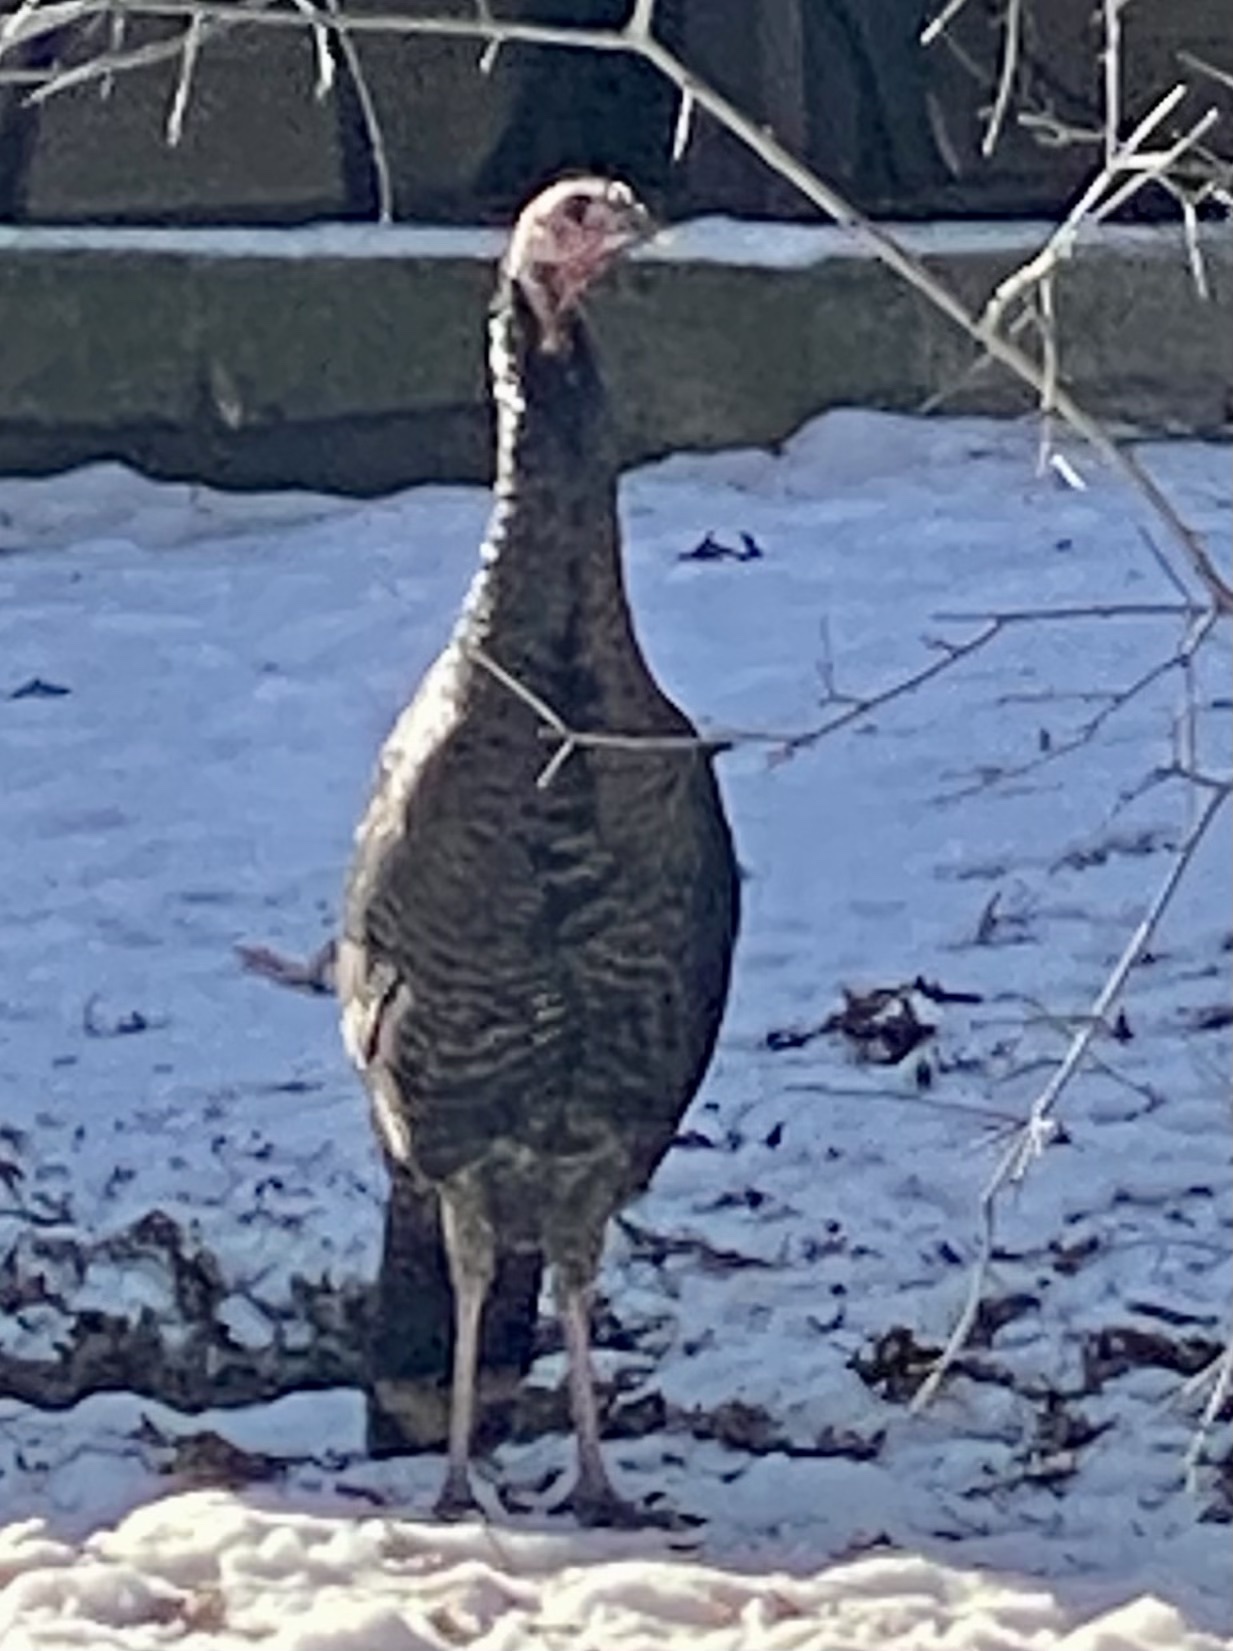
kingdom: Animalia
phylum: Chordata
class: Aves
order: Galliformes
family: Phasianidae
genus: Meleagris
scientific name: Meleagris gallopavo
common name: Wild turkey
